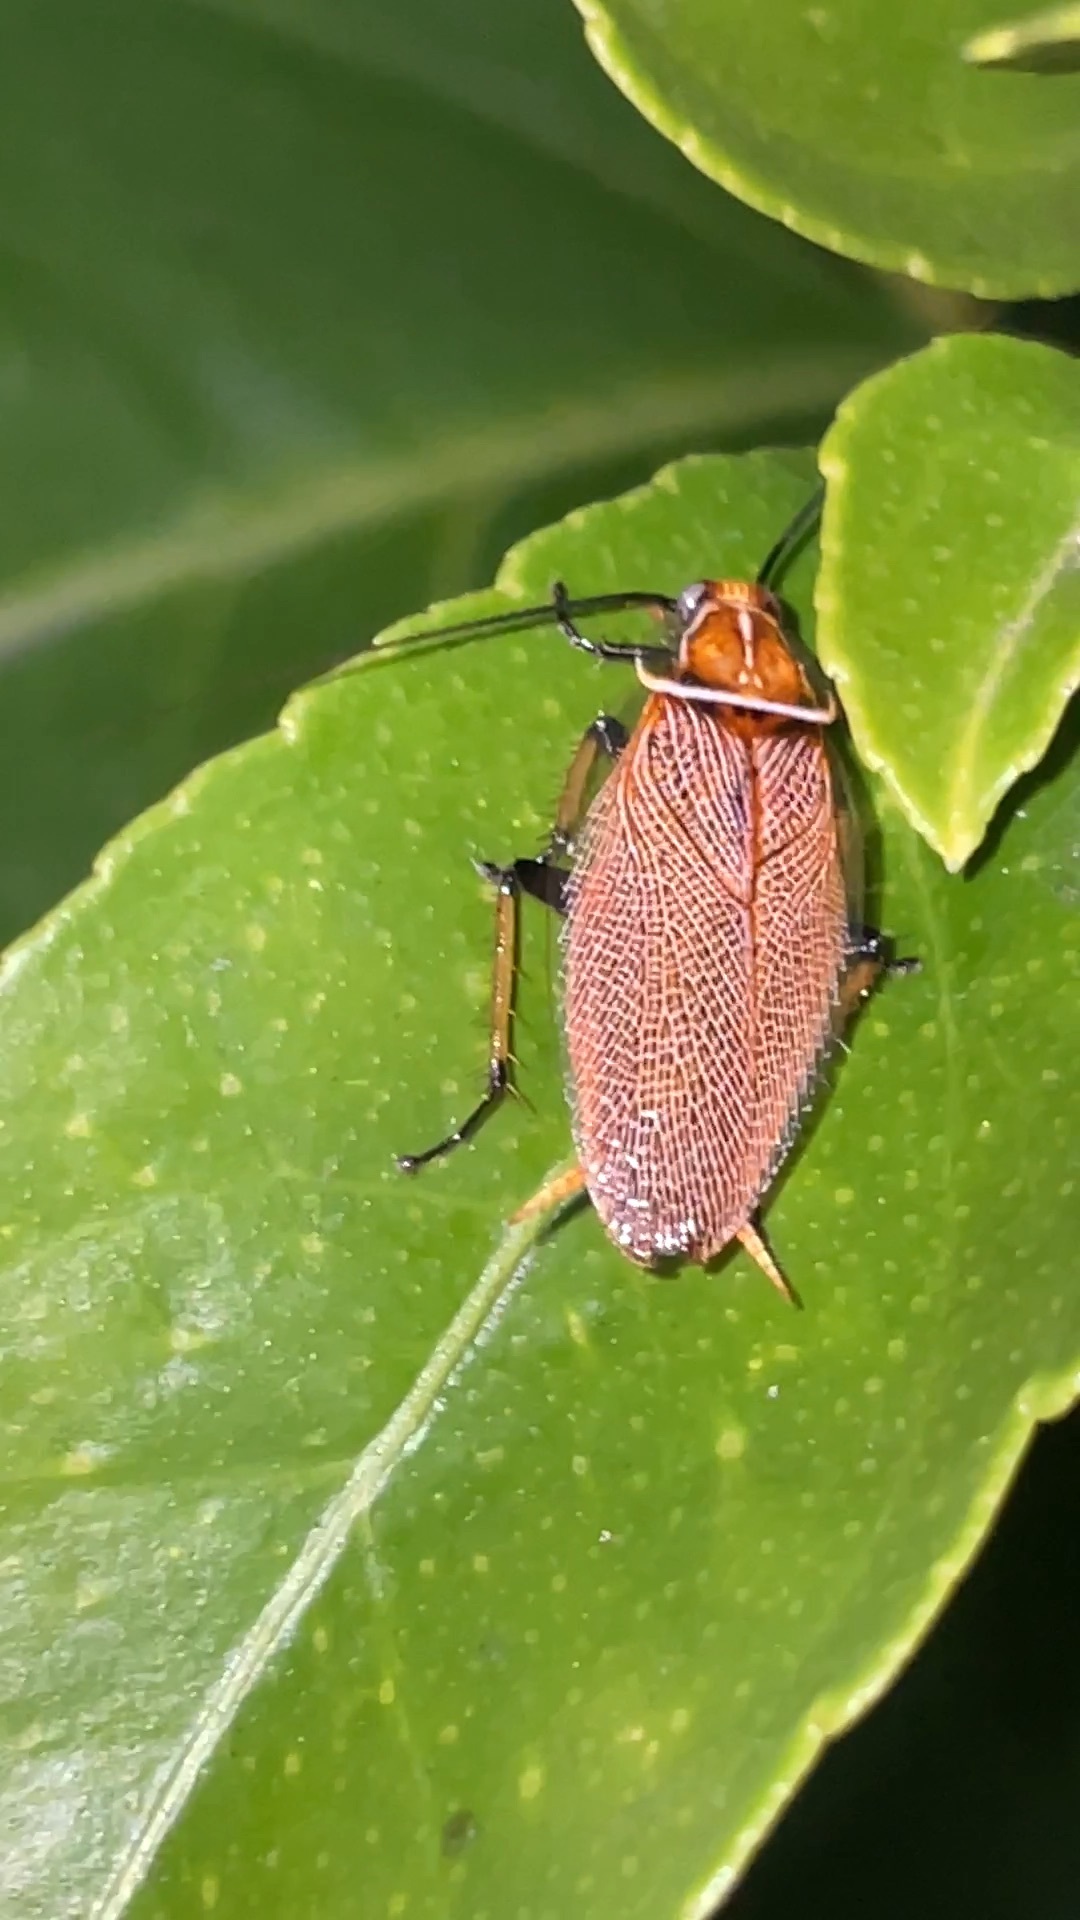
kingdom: Animalia
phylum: Arthropoda
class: Insecta
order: Blattodea
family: Ectobiidae
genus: Ellipsidion
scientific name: Ellipsidion humerale
